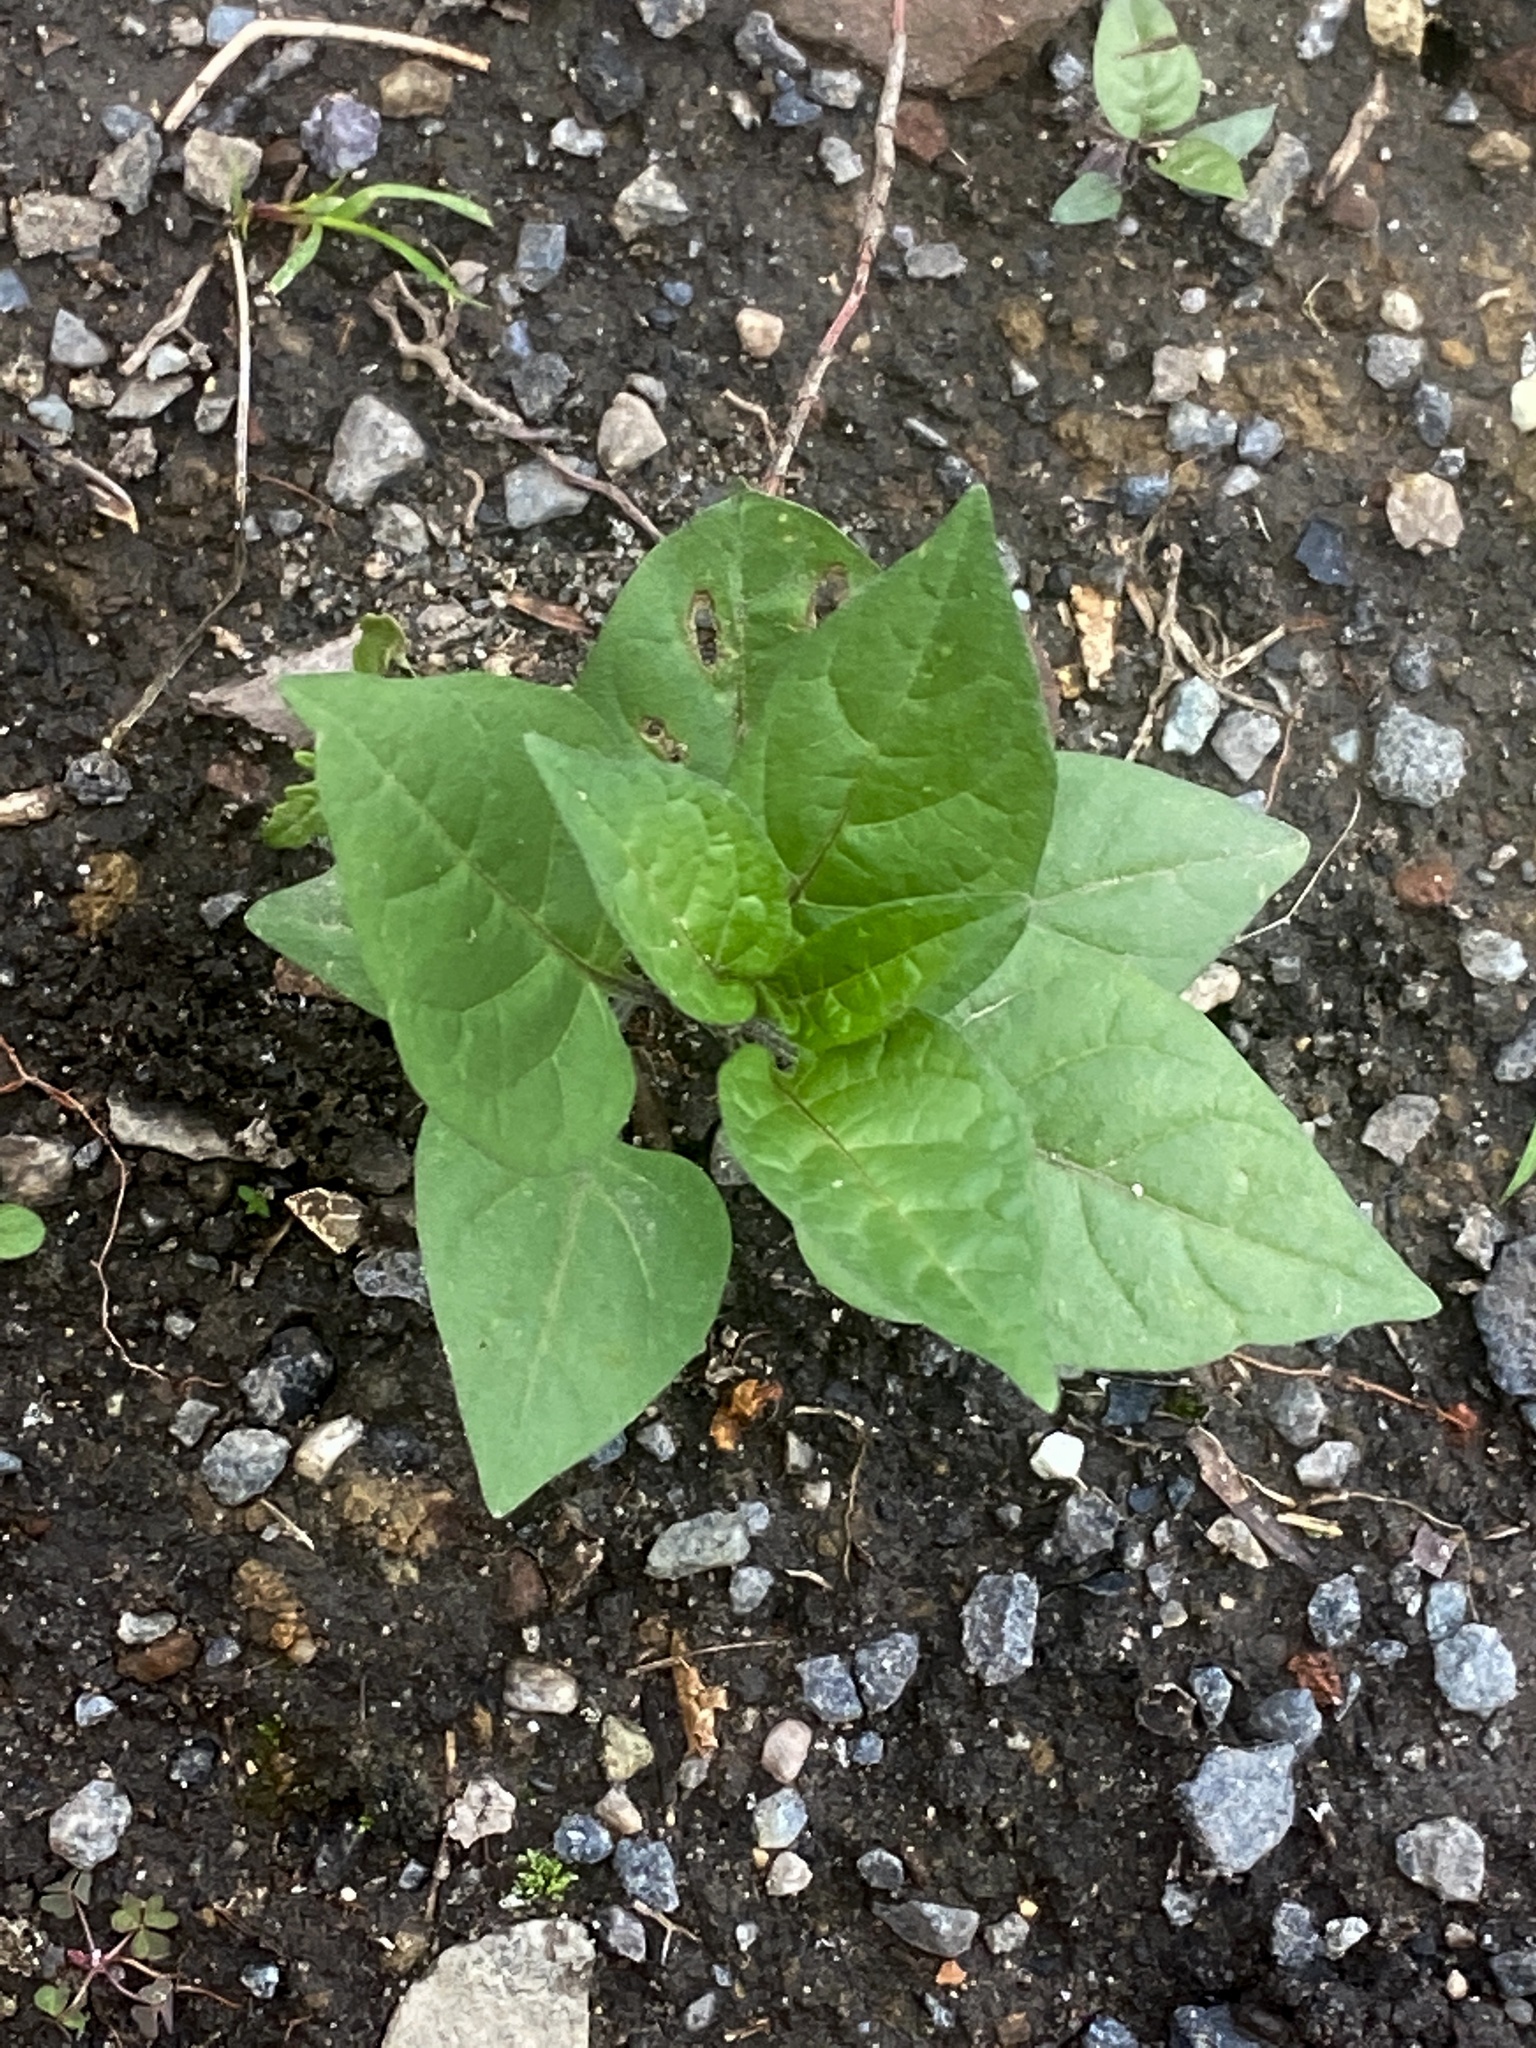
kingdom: Plantae
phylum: Tracheophyta
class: Magnoliopsida
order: Solanales
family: Solanaceae
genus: Solanum
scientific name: Solanum dulcamara
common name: Climbing nightshade
